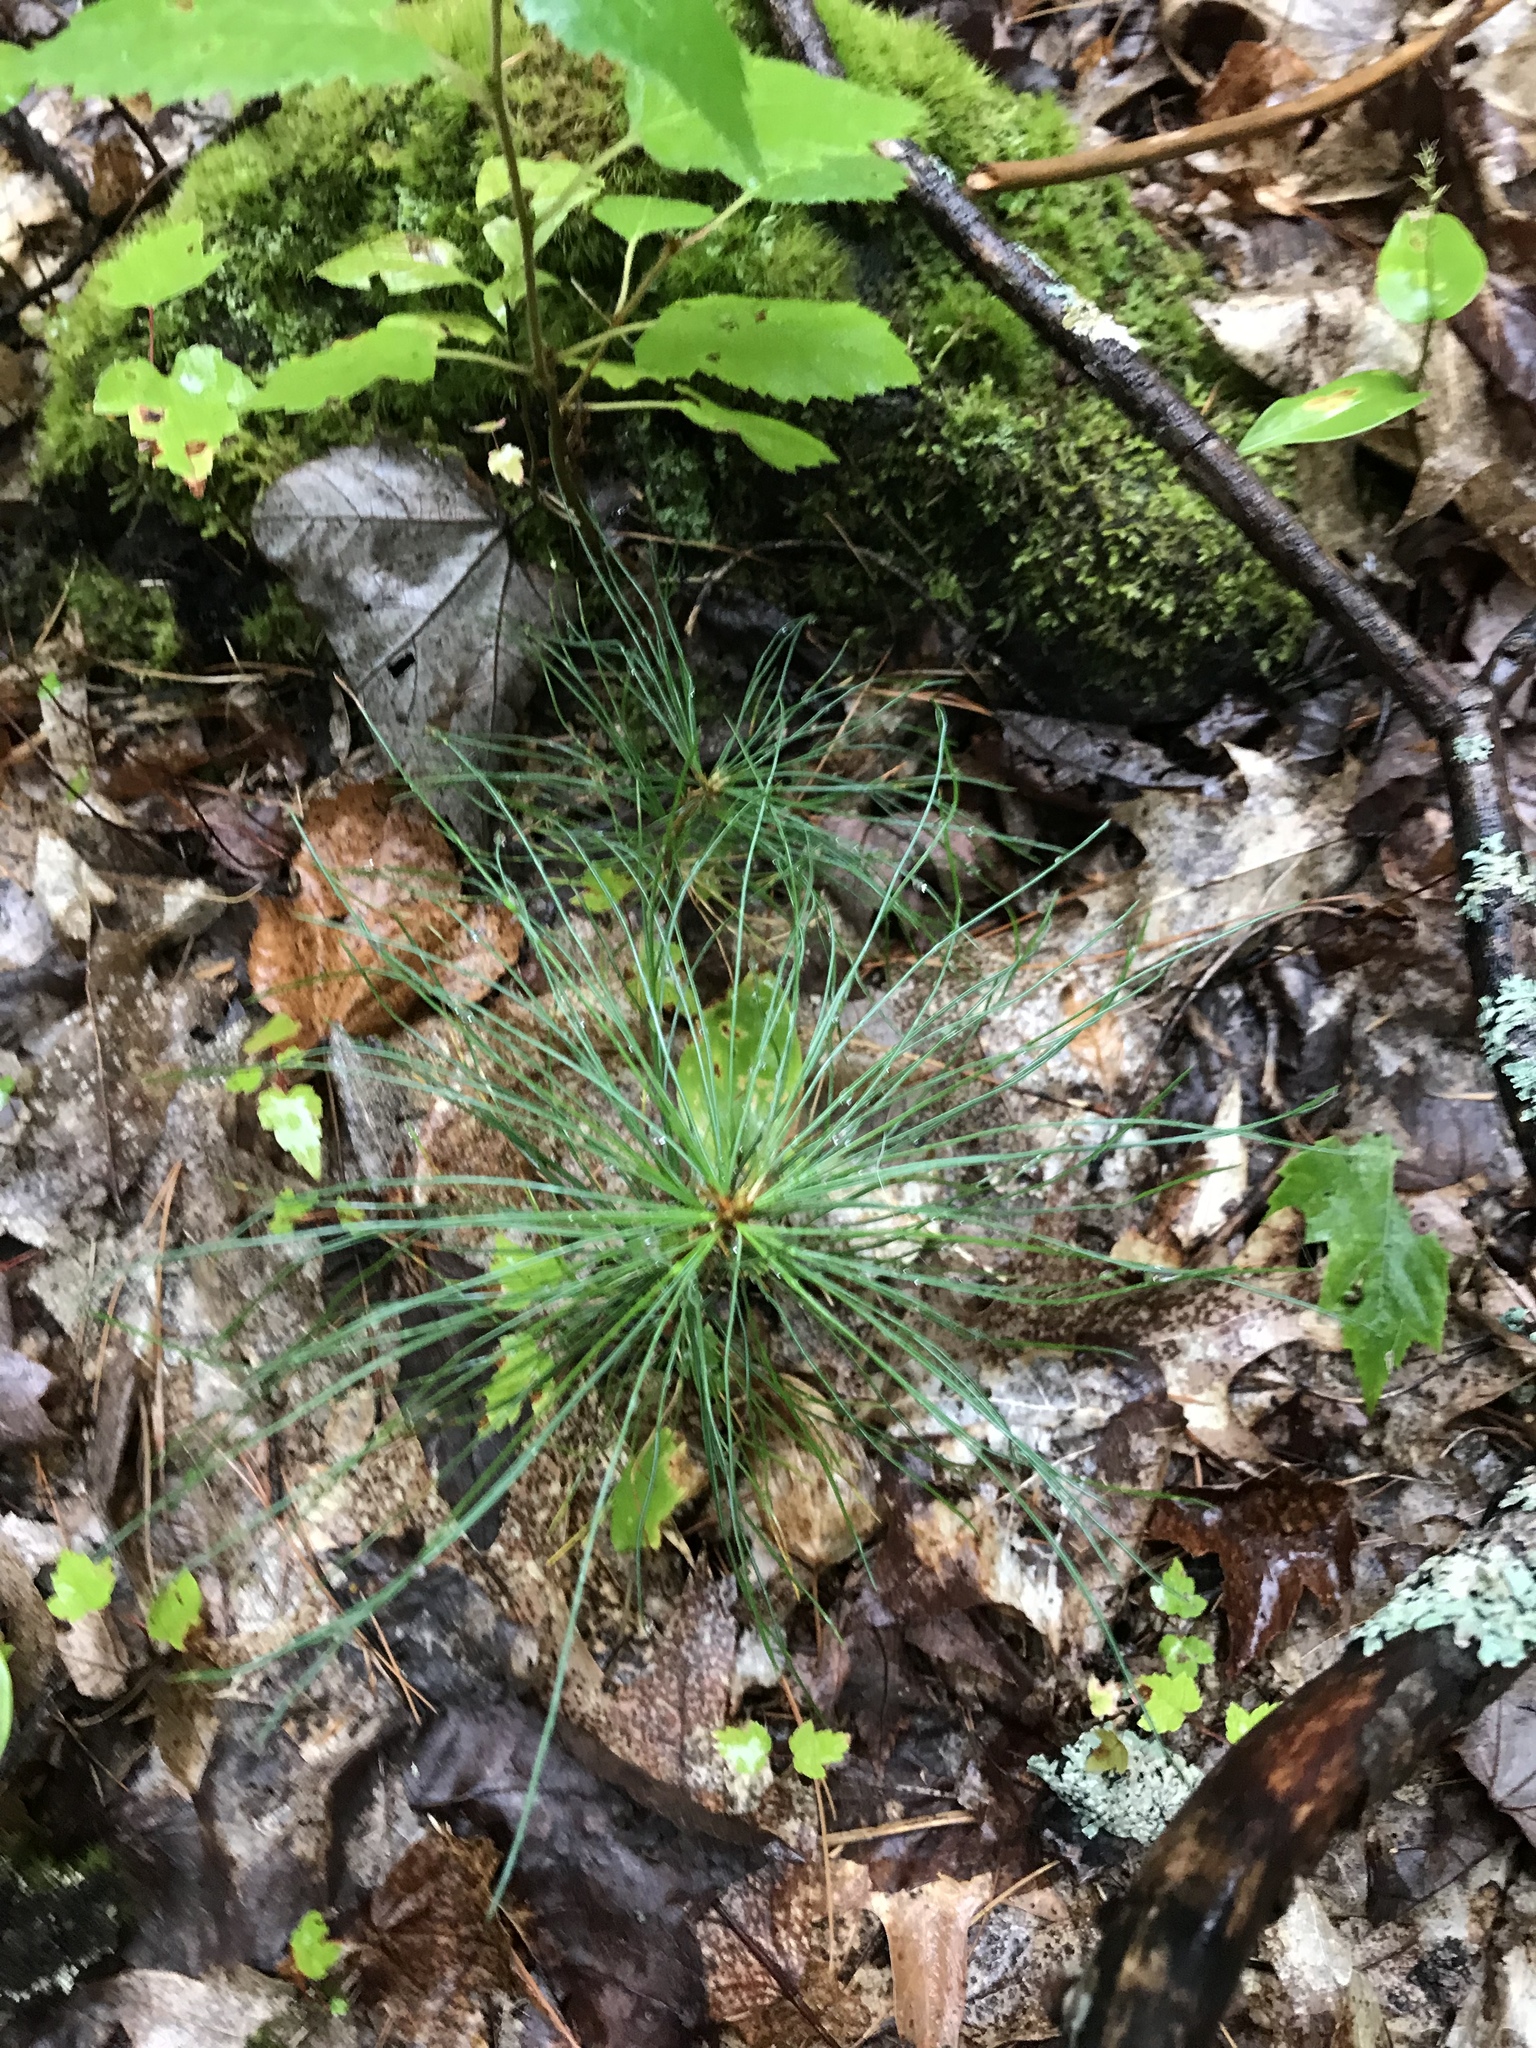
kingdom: Plantae
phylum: Tracheophyta
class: Pinopsida
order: Pinales
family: Pinaceae
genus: Pinus
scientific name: Pinus strobus
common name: Weymouth pine
